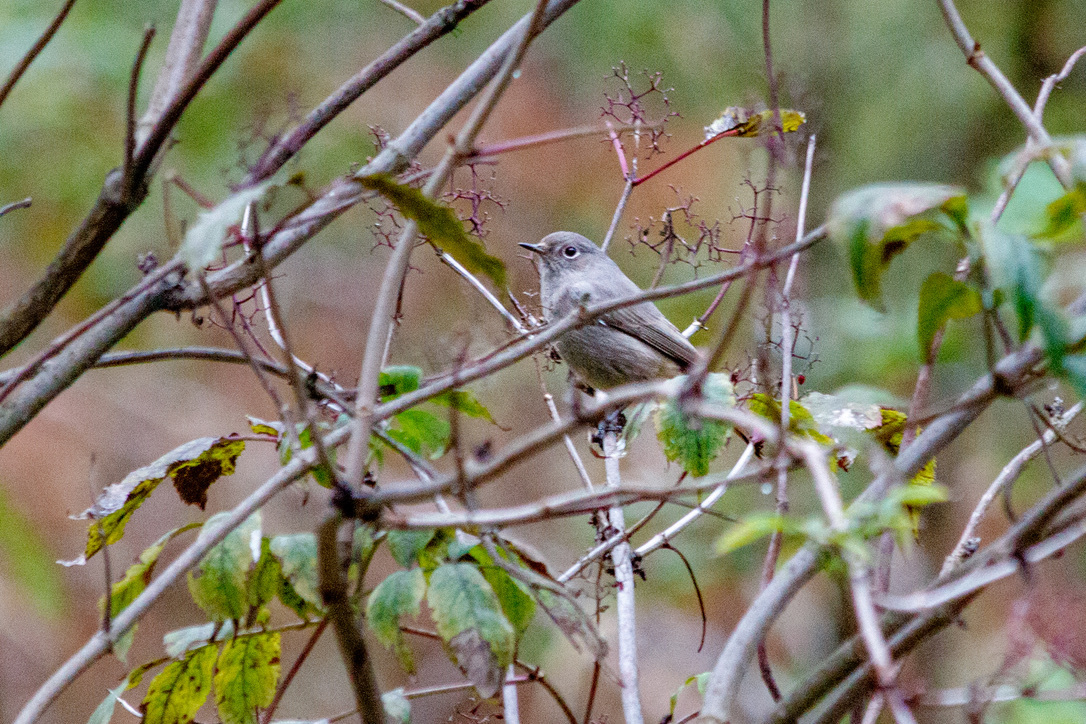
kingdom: Animalia
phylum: Chordata
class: Aves
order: Passeriformes
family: Muscicapidae
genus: Phoenicurus
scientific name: Phoenicurus ochruros
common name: Black redstart
